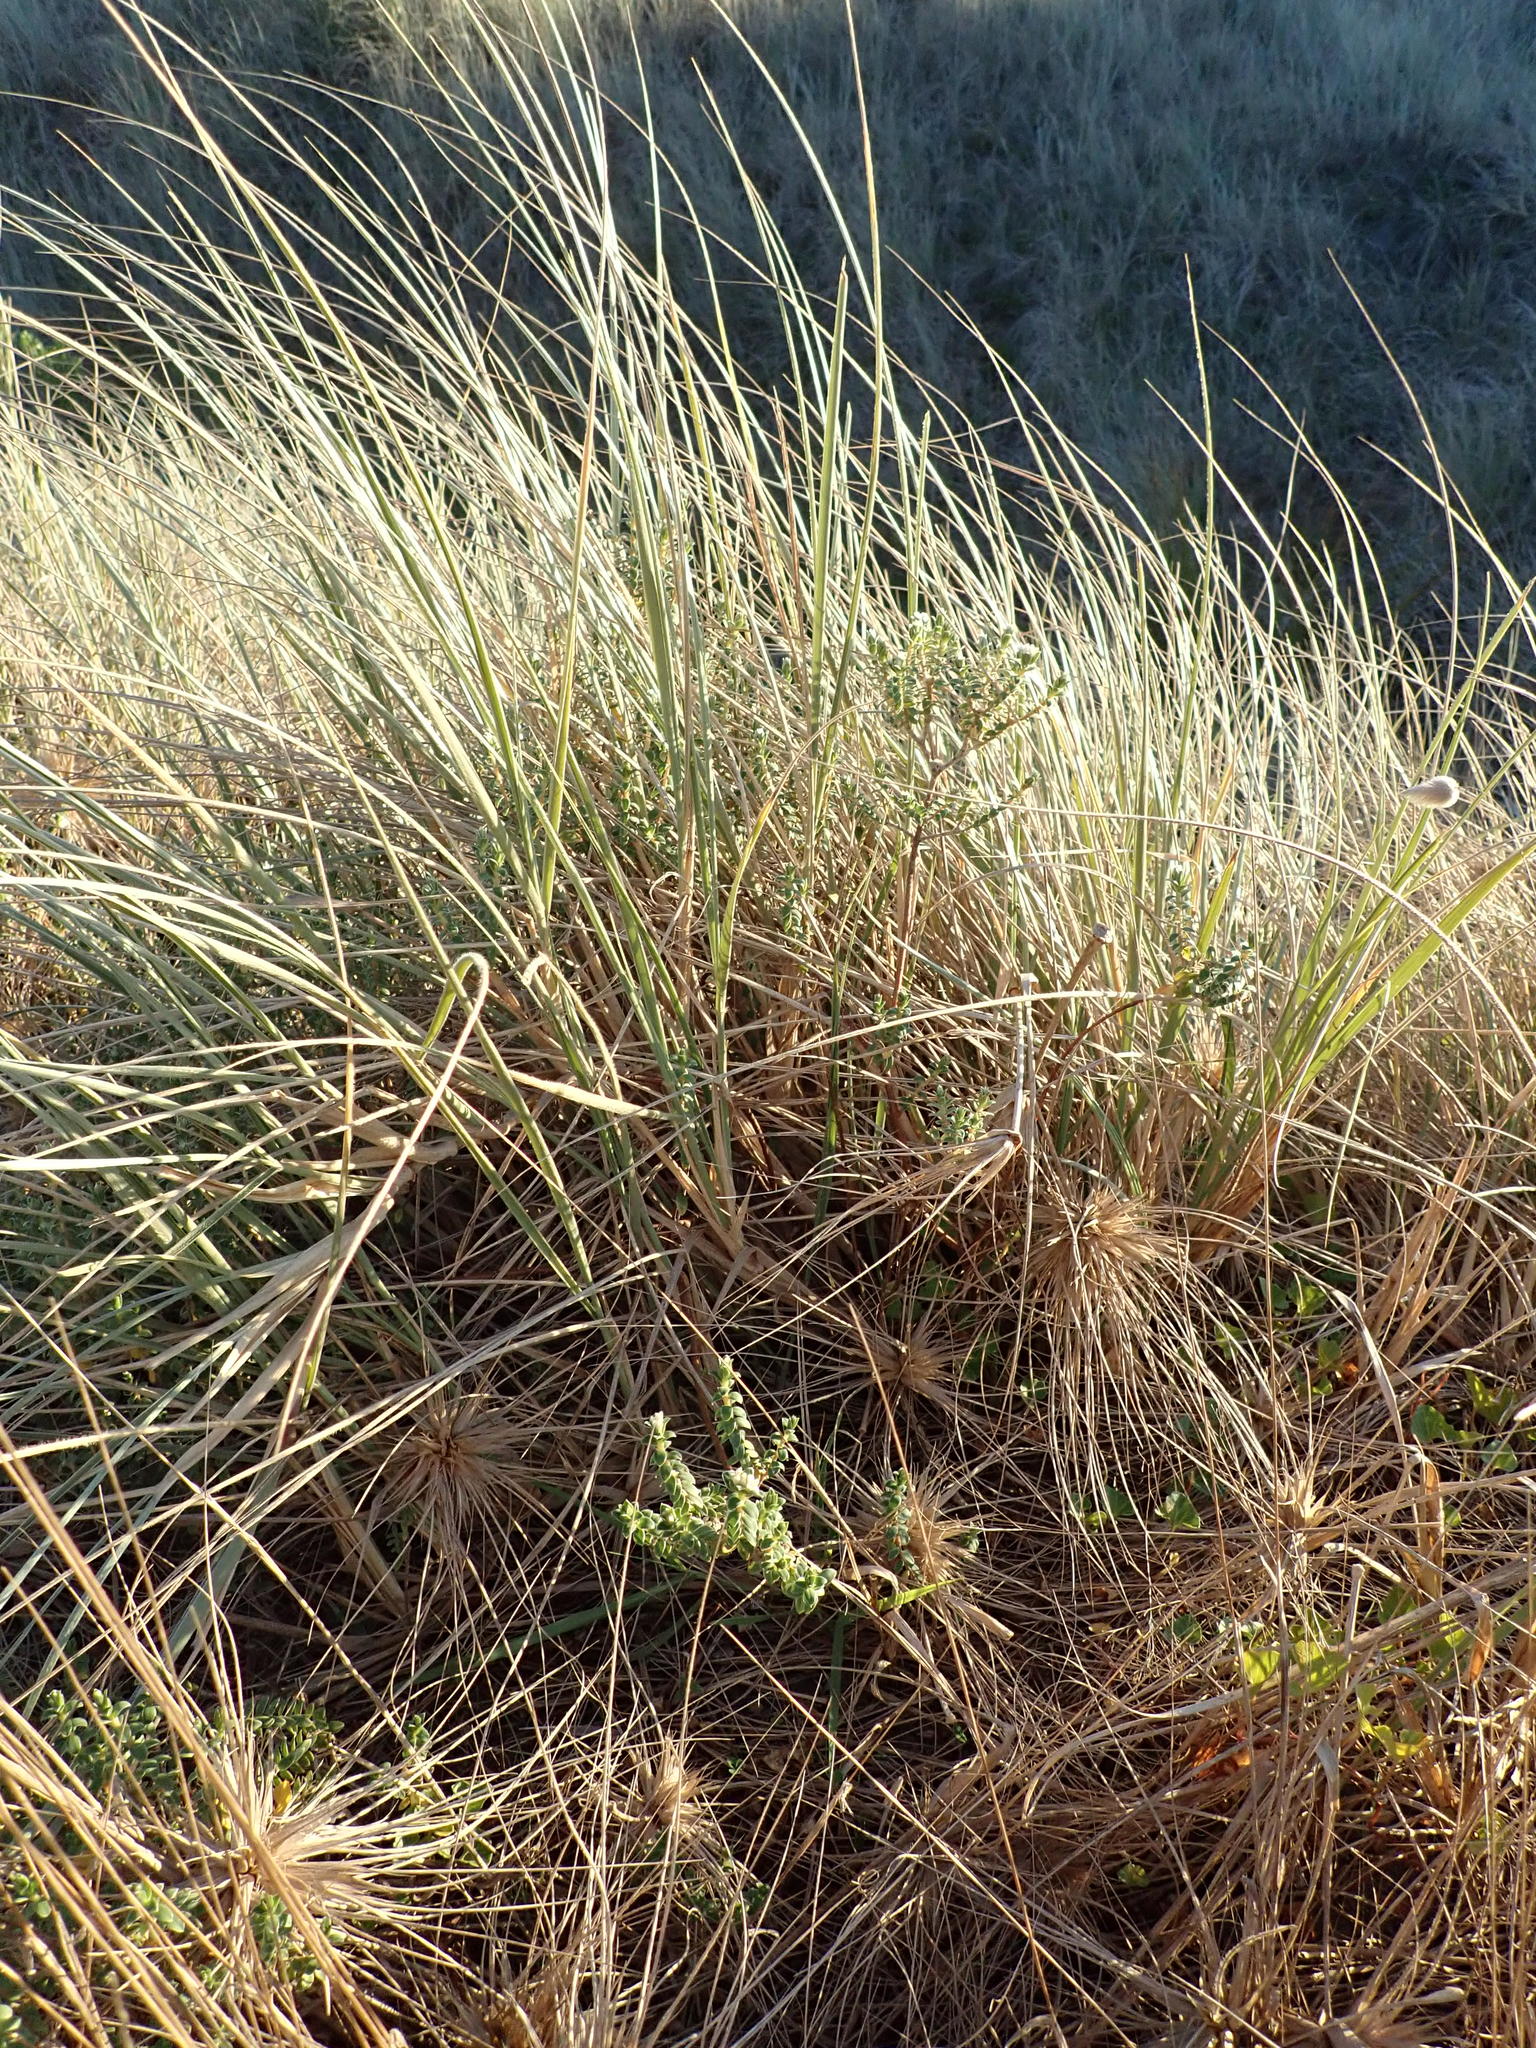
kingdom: Plantae
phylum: Tracheophyta
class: Magnoliopsida
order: Malvales
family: Thymelaeaceae
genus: Pimelea
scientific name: Pimelea villosa
